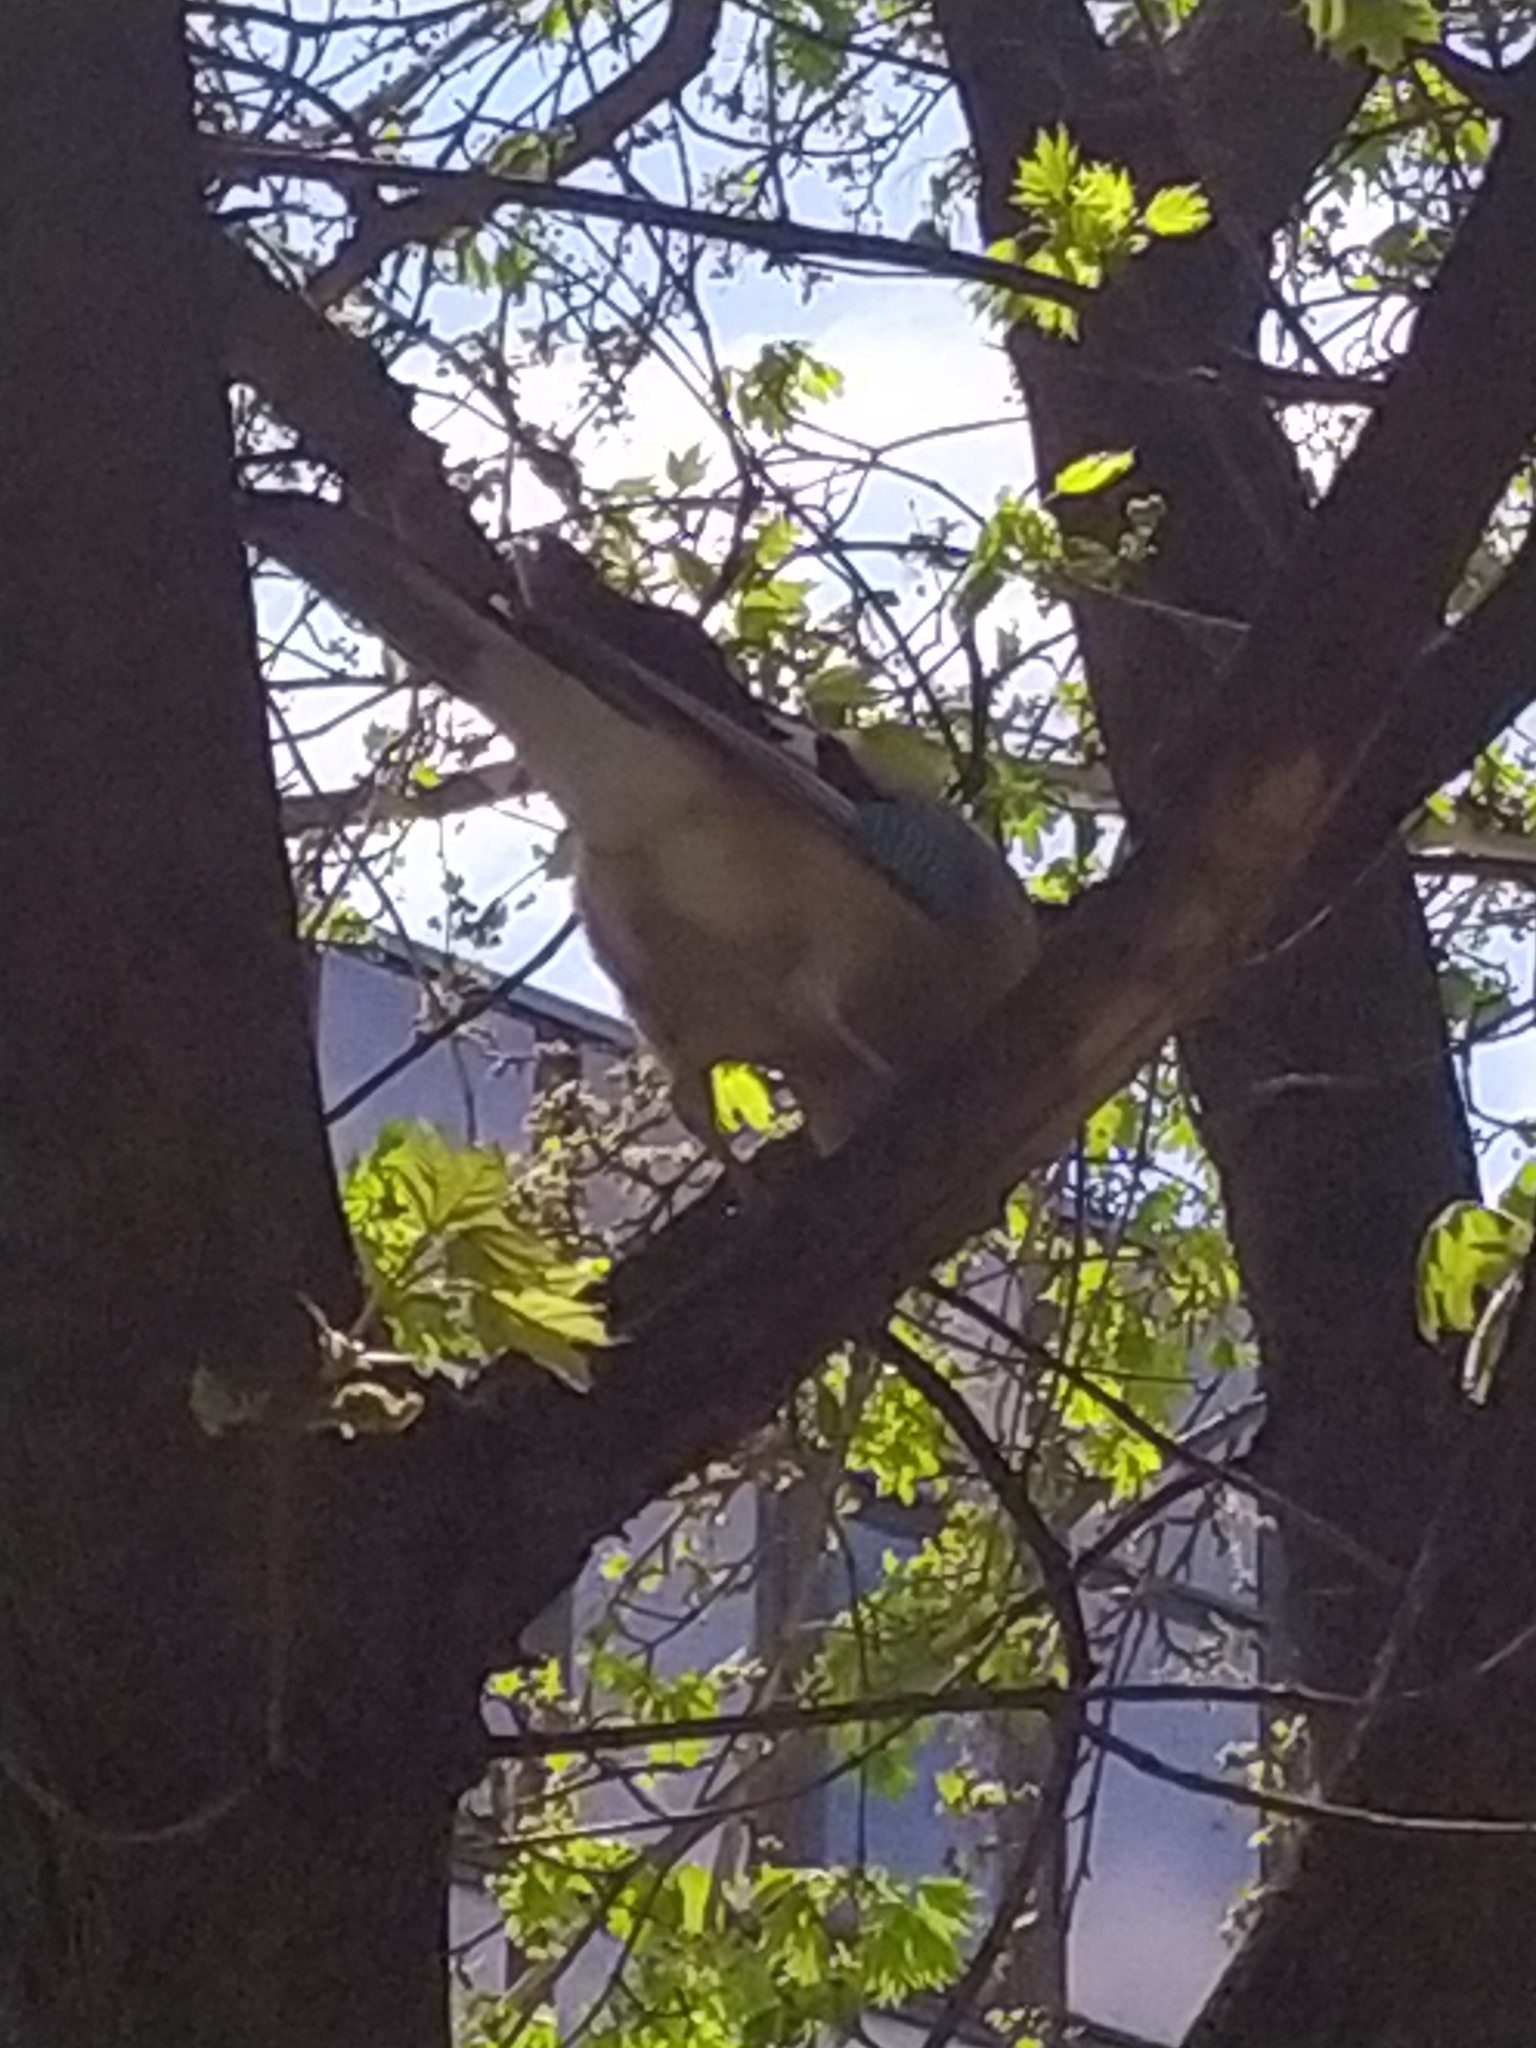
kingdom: Animalia
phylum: Chordata
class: Aves
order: Passeriformes
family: Corvidae
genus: Garrulus
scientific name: Garrulus glandarius
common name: Eurasian jay
